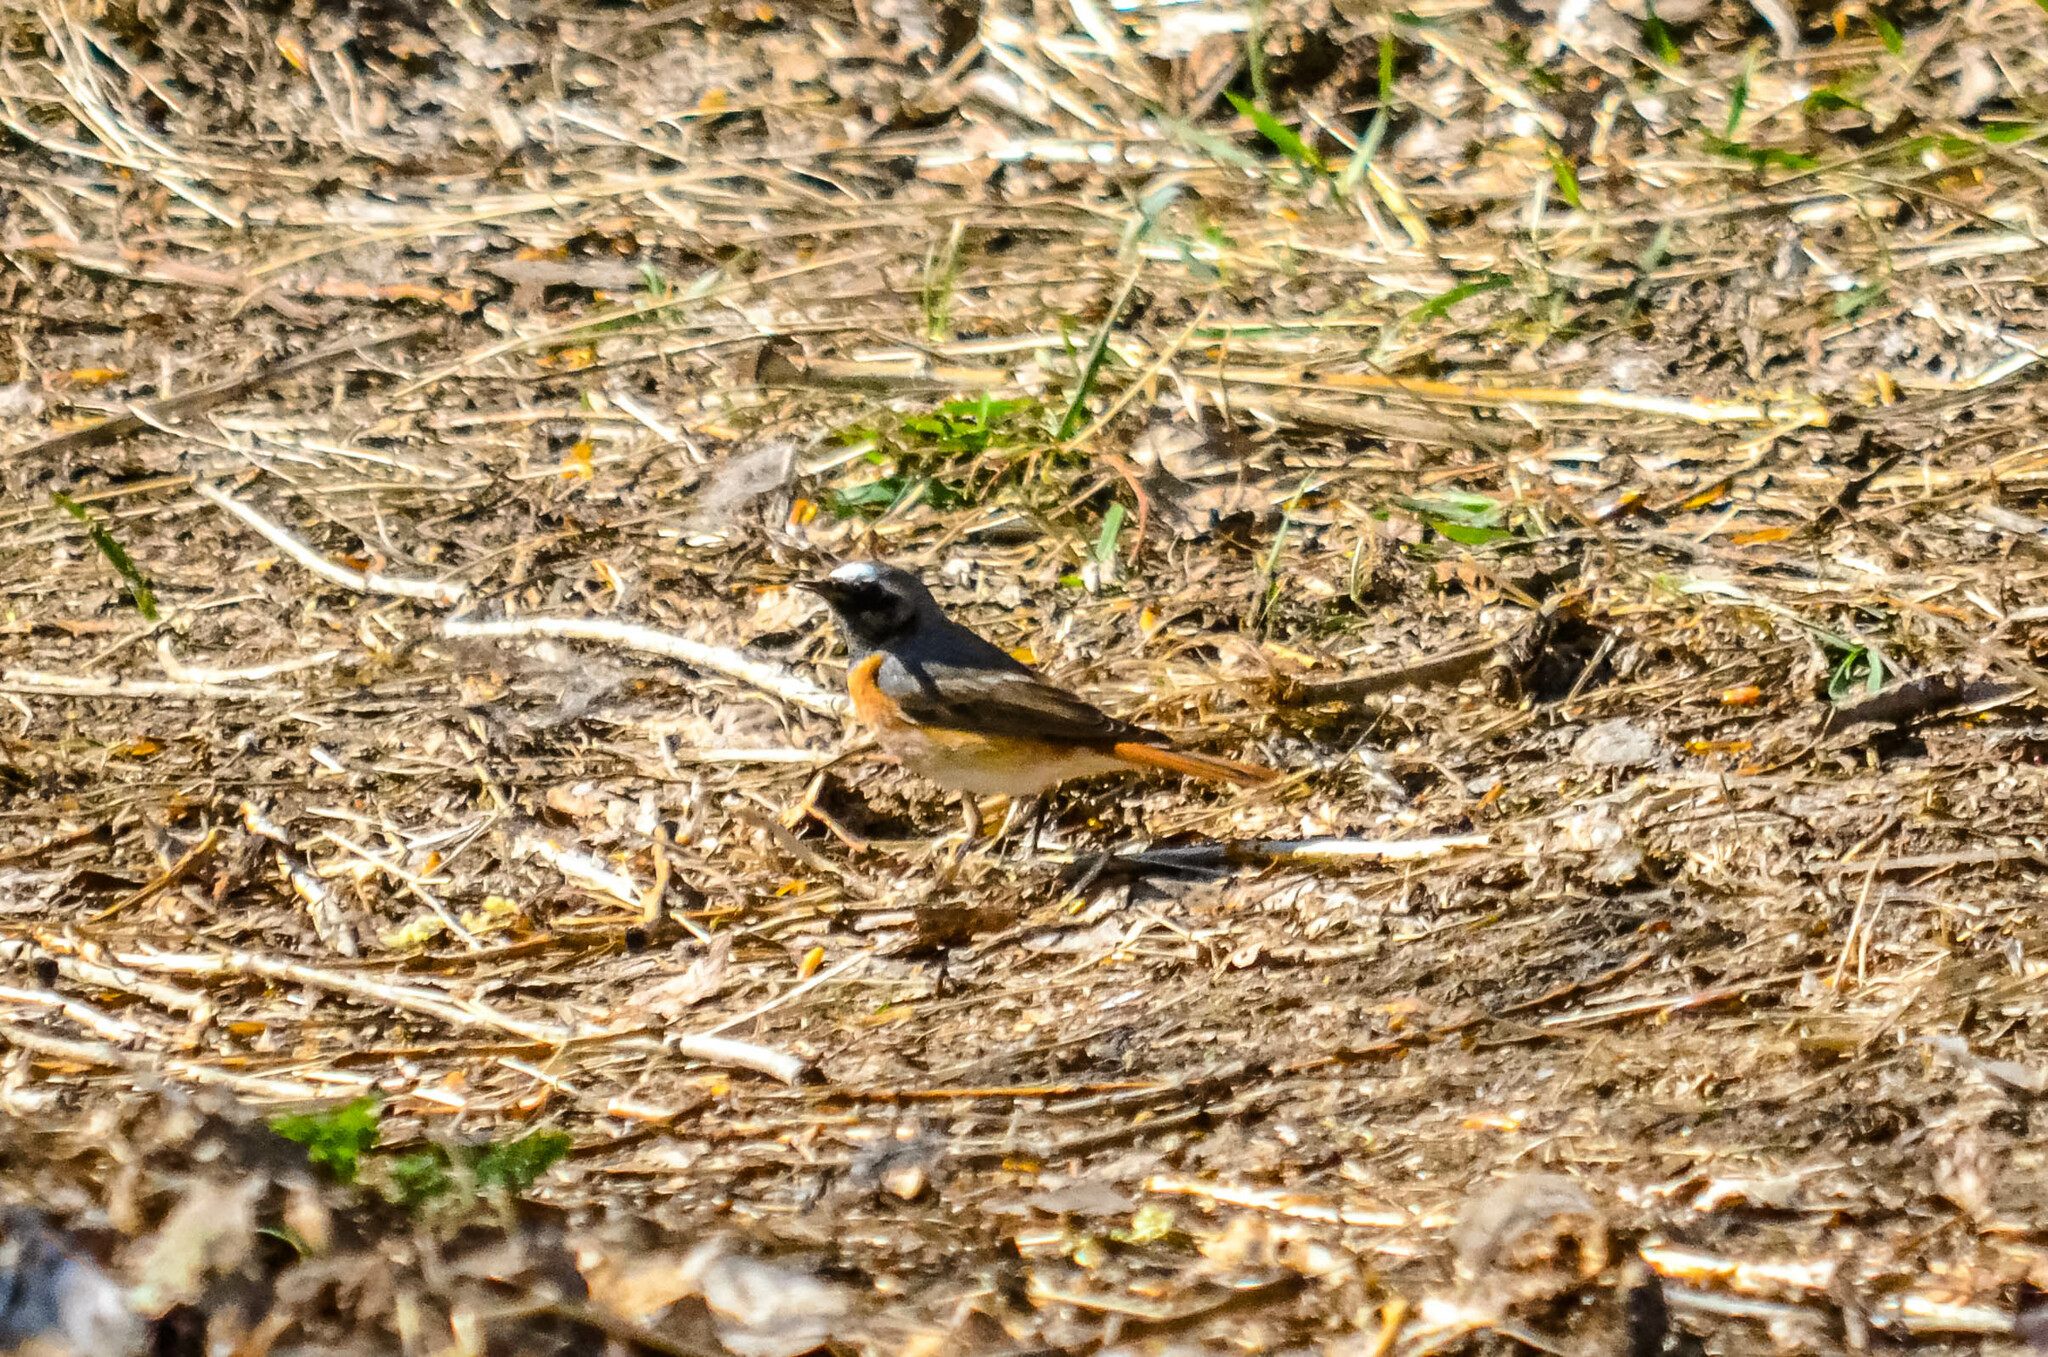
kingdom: Animalia
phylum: Chordata
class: Aves
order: Passeriformes
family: Muscicapidae
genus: Phoenicurus
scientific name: Phoenicurus phoenicurus
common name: Common redstart
